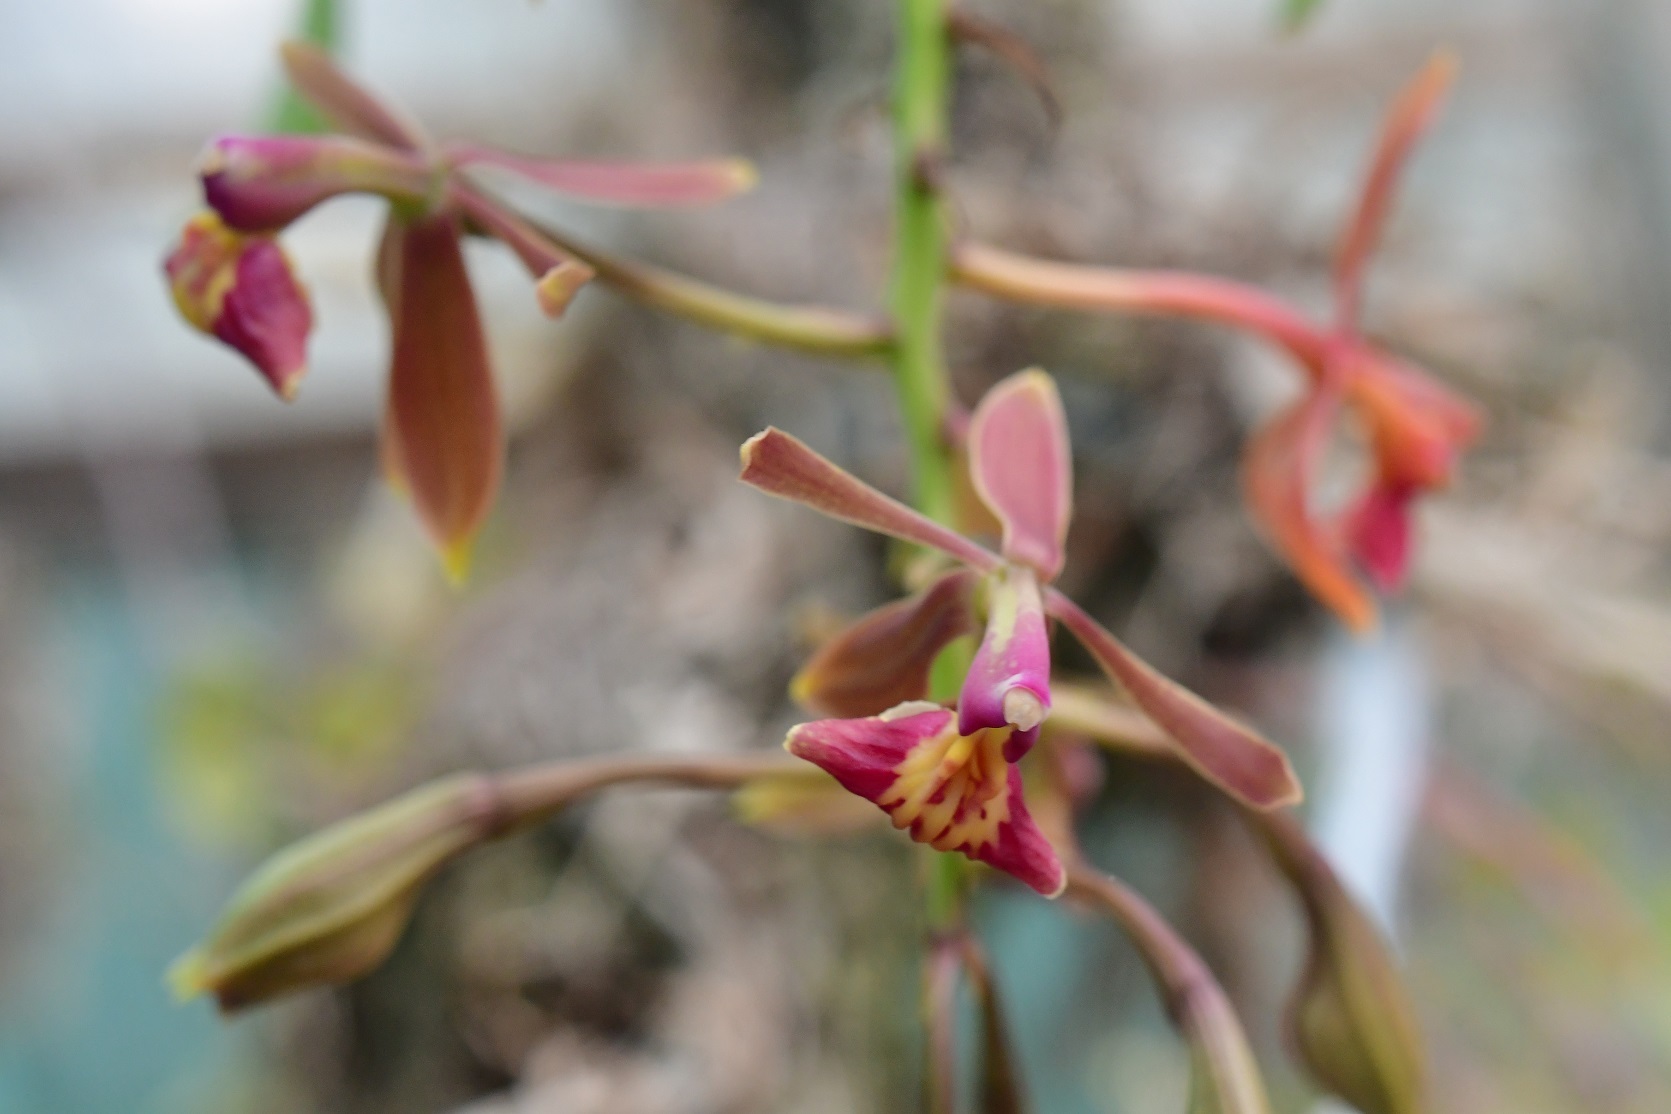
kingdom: Plantae
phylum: Tracheophyta
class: Liliopsida
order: Asparagales
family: Orchidaceae
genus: Epidendrum
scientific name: Epidendrum radioferens
